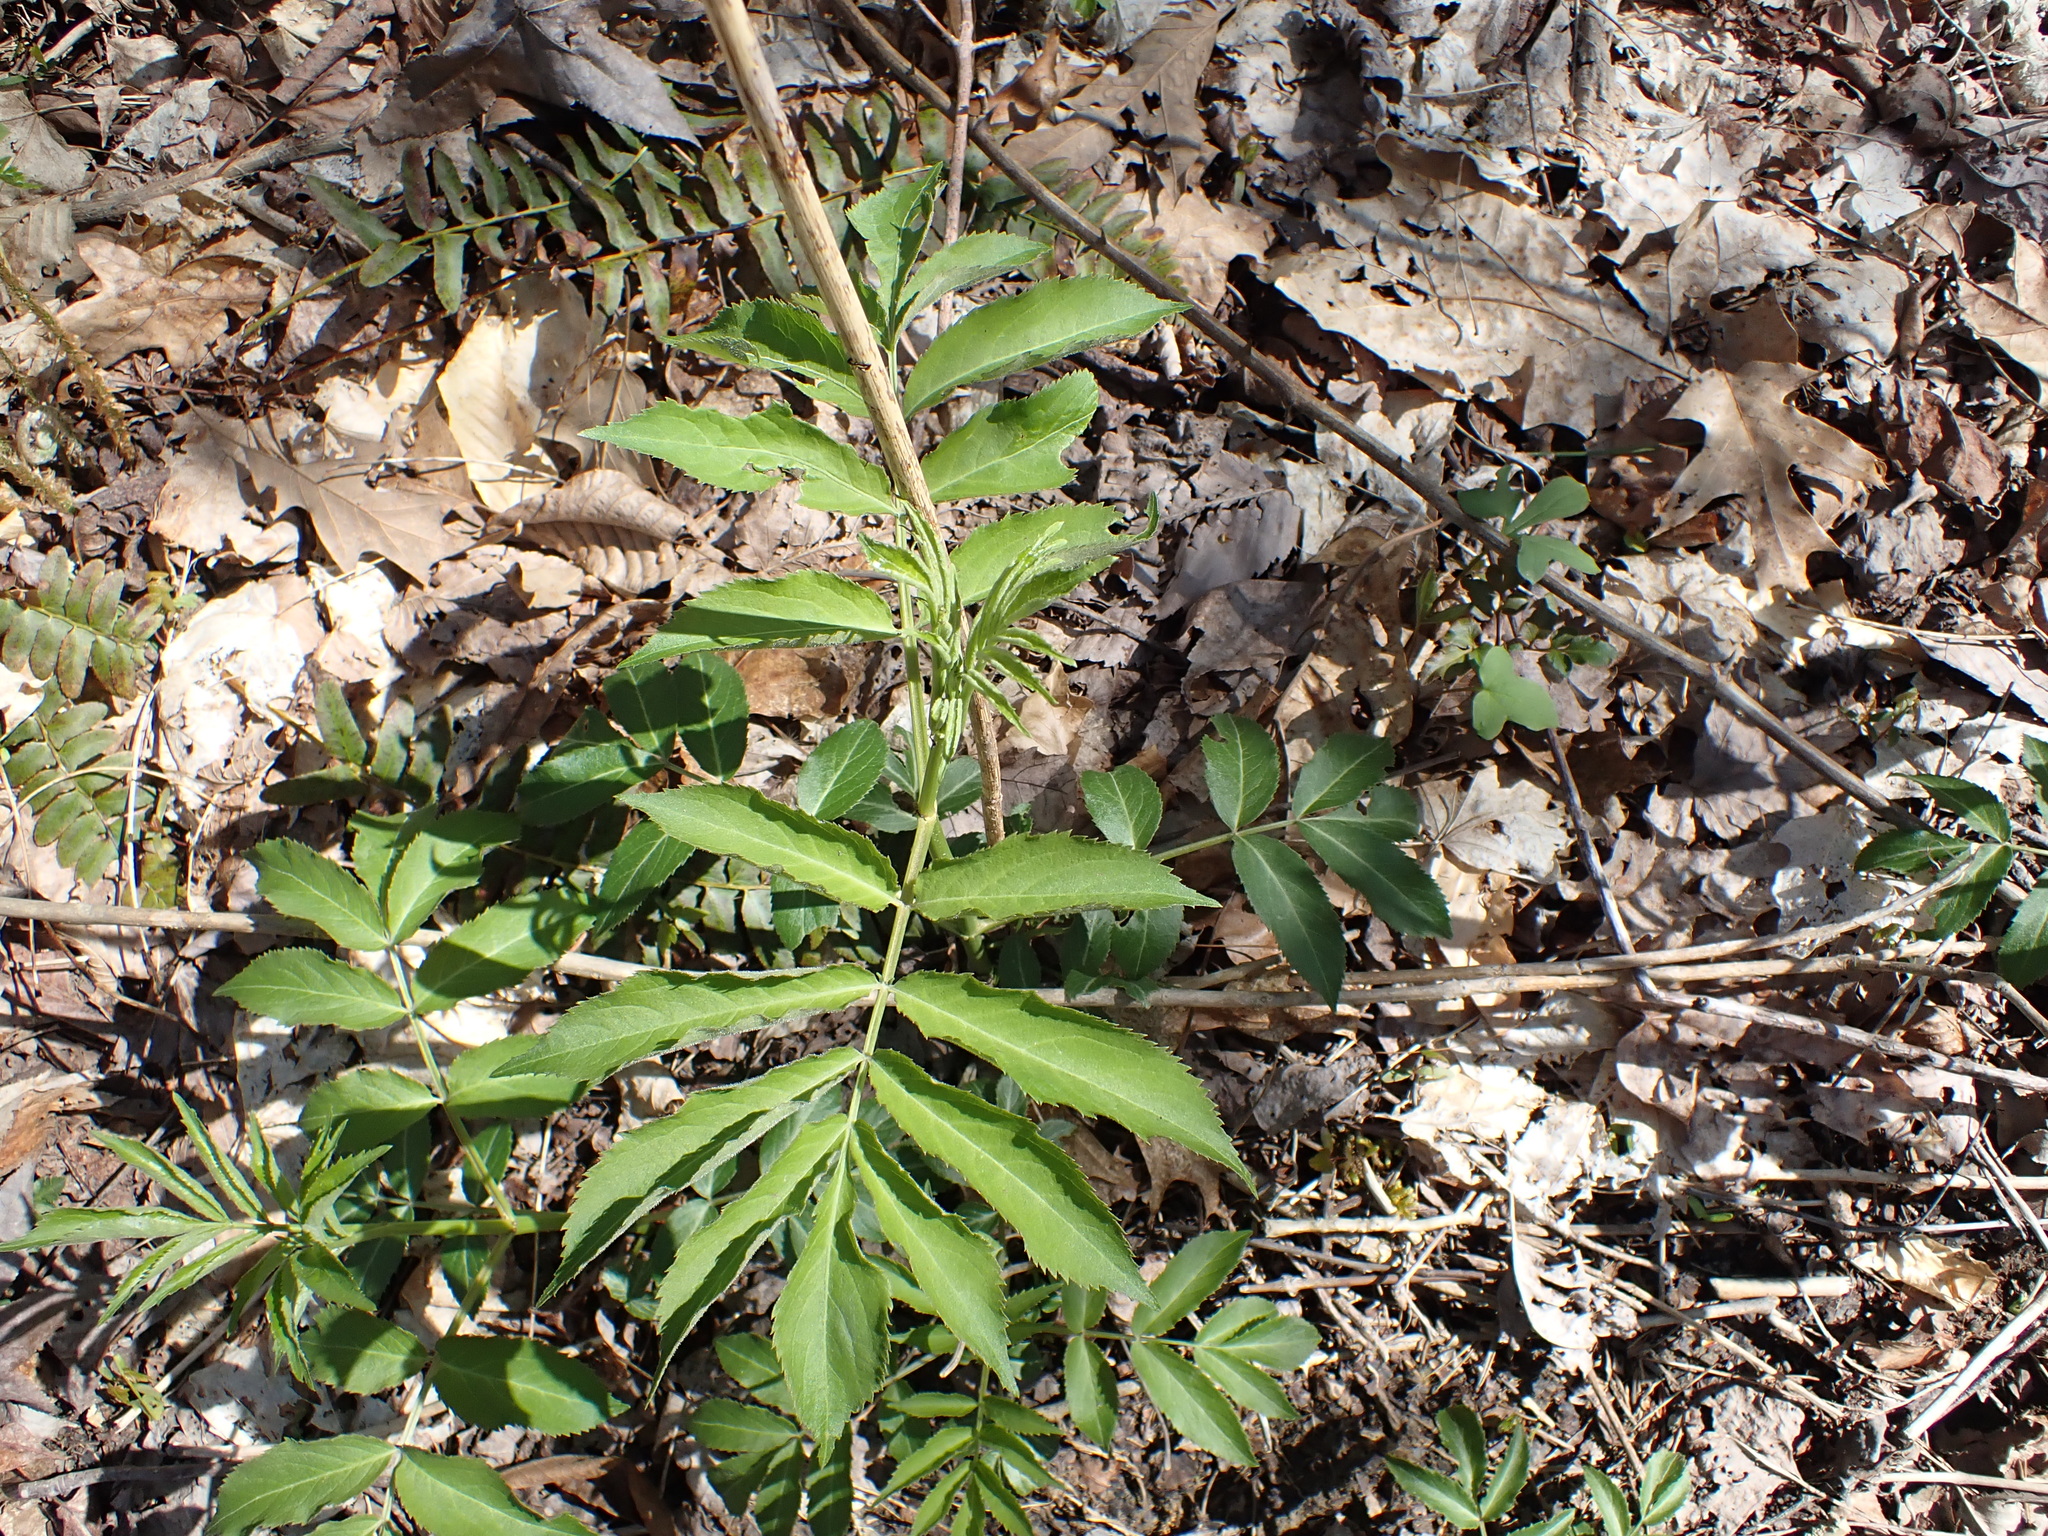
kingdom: Plantae
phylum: Tracheophyta
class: Magnoliopsida
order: Dipsacales
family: Viburnaceae
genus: Sambucus
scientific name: Sambucus canadensis
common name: American elder
